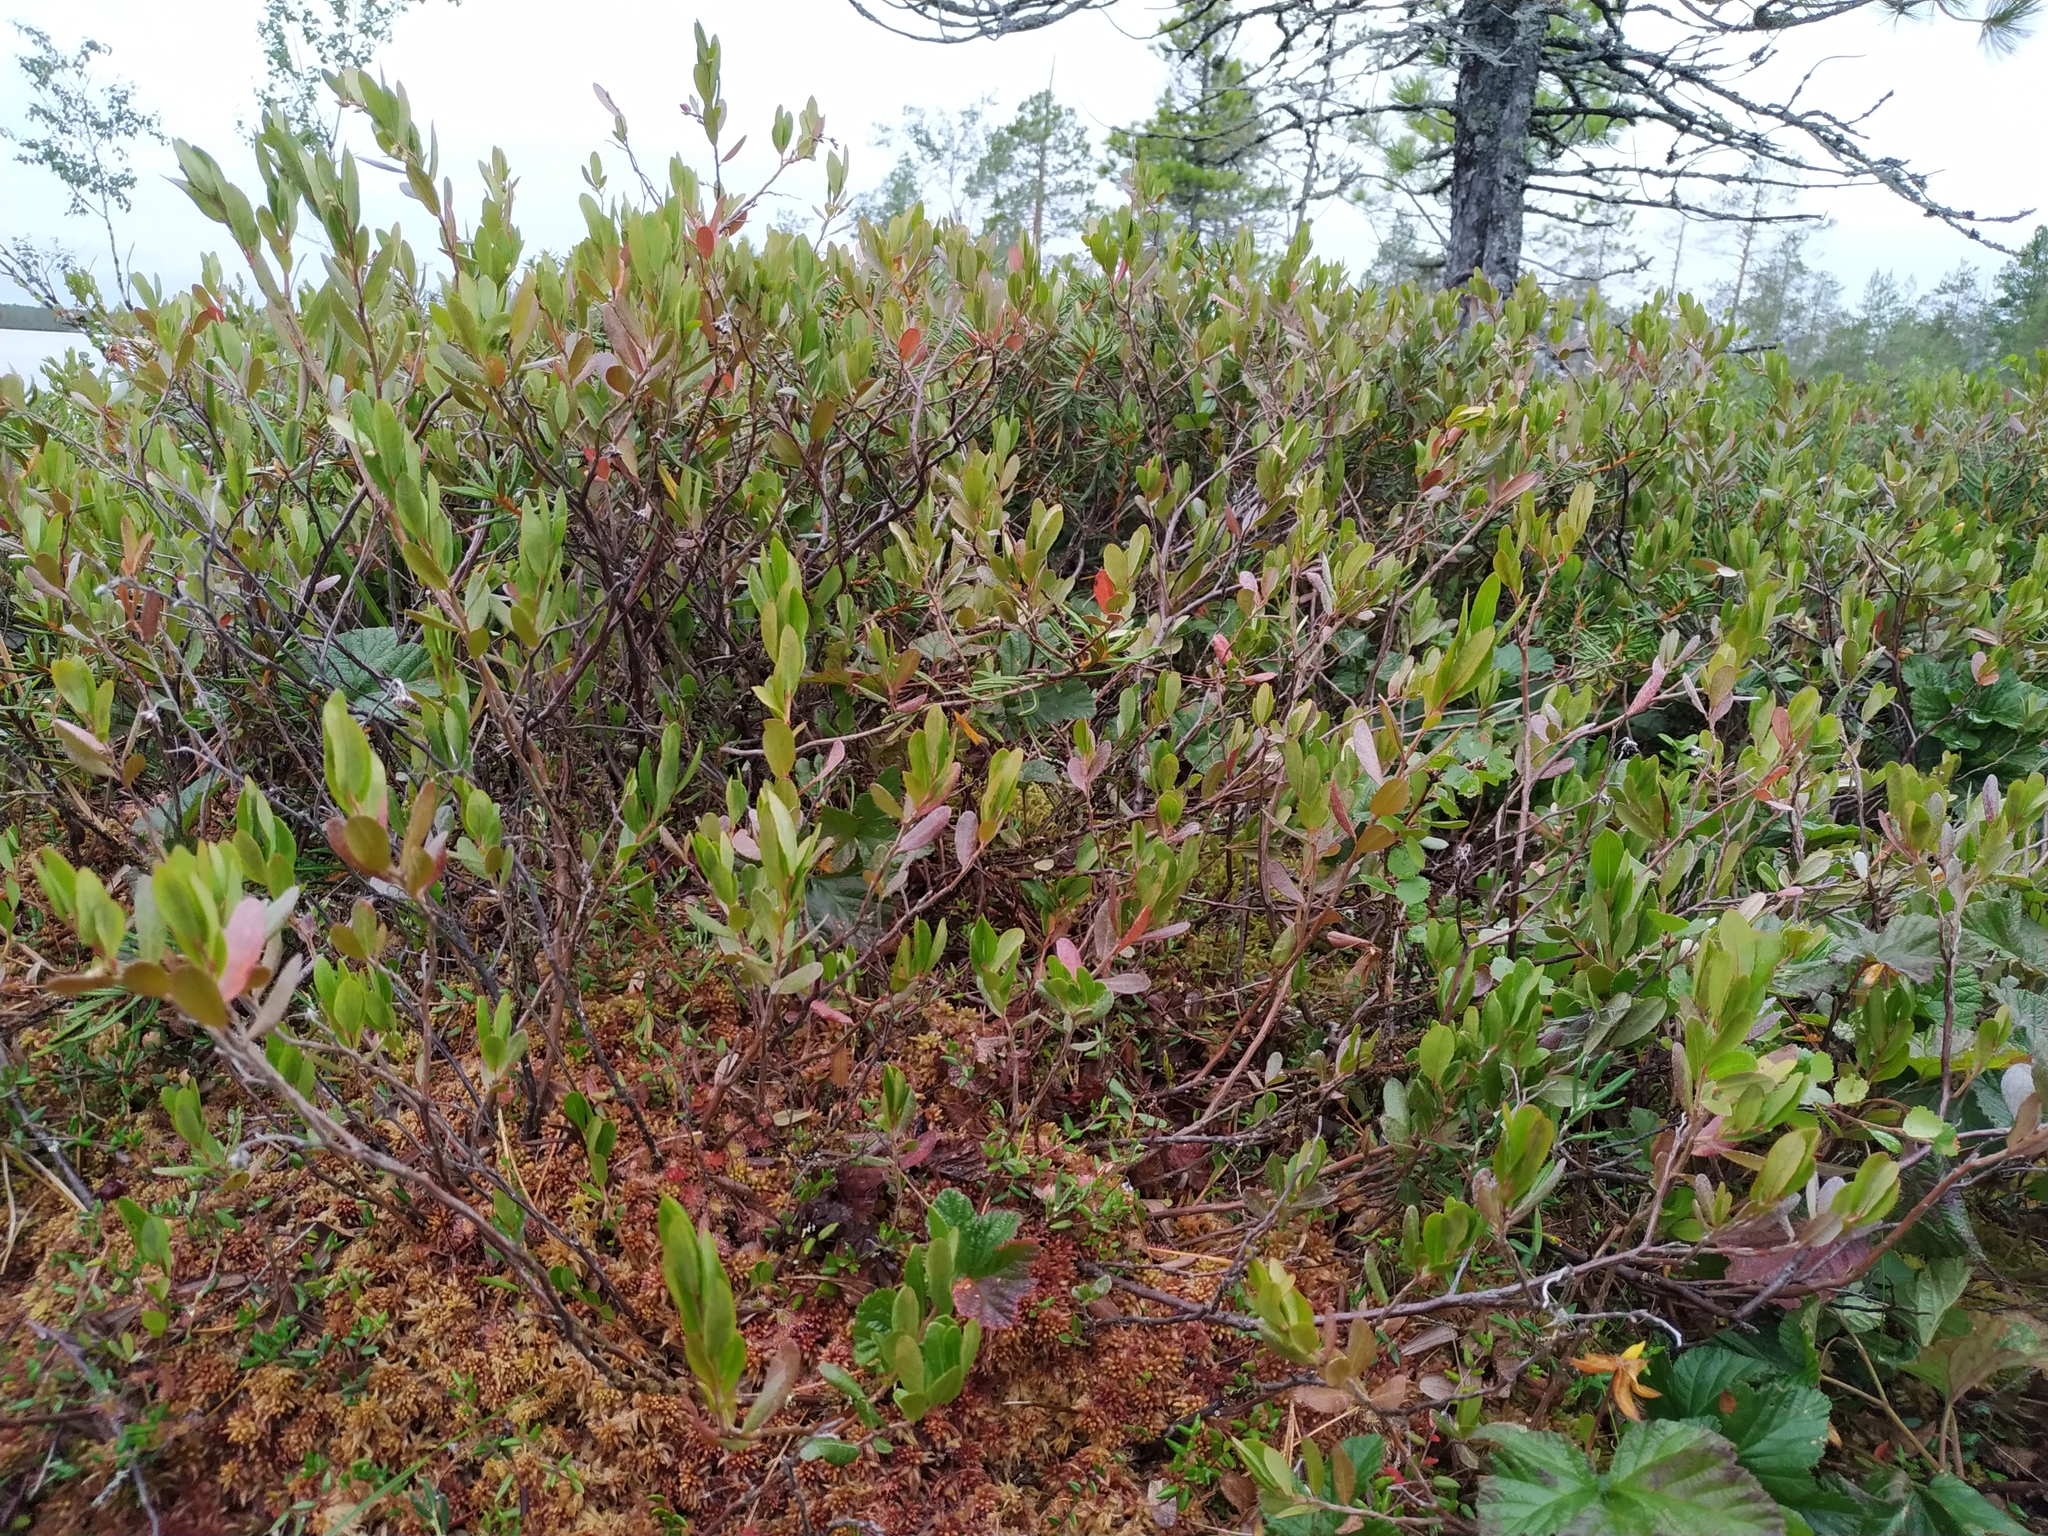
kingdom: Plantae
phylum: Tracheophyta
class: Magnoliopsida
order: Ericales
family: Ericaceae
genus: Chamaedaphne
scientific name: Chamaedaphne calyculata
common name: Leatherleaf
